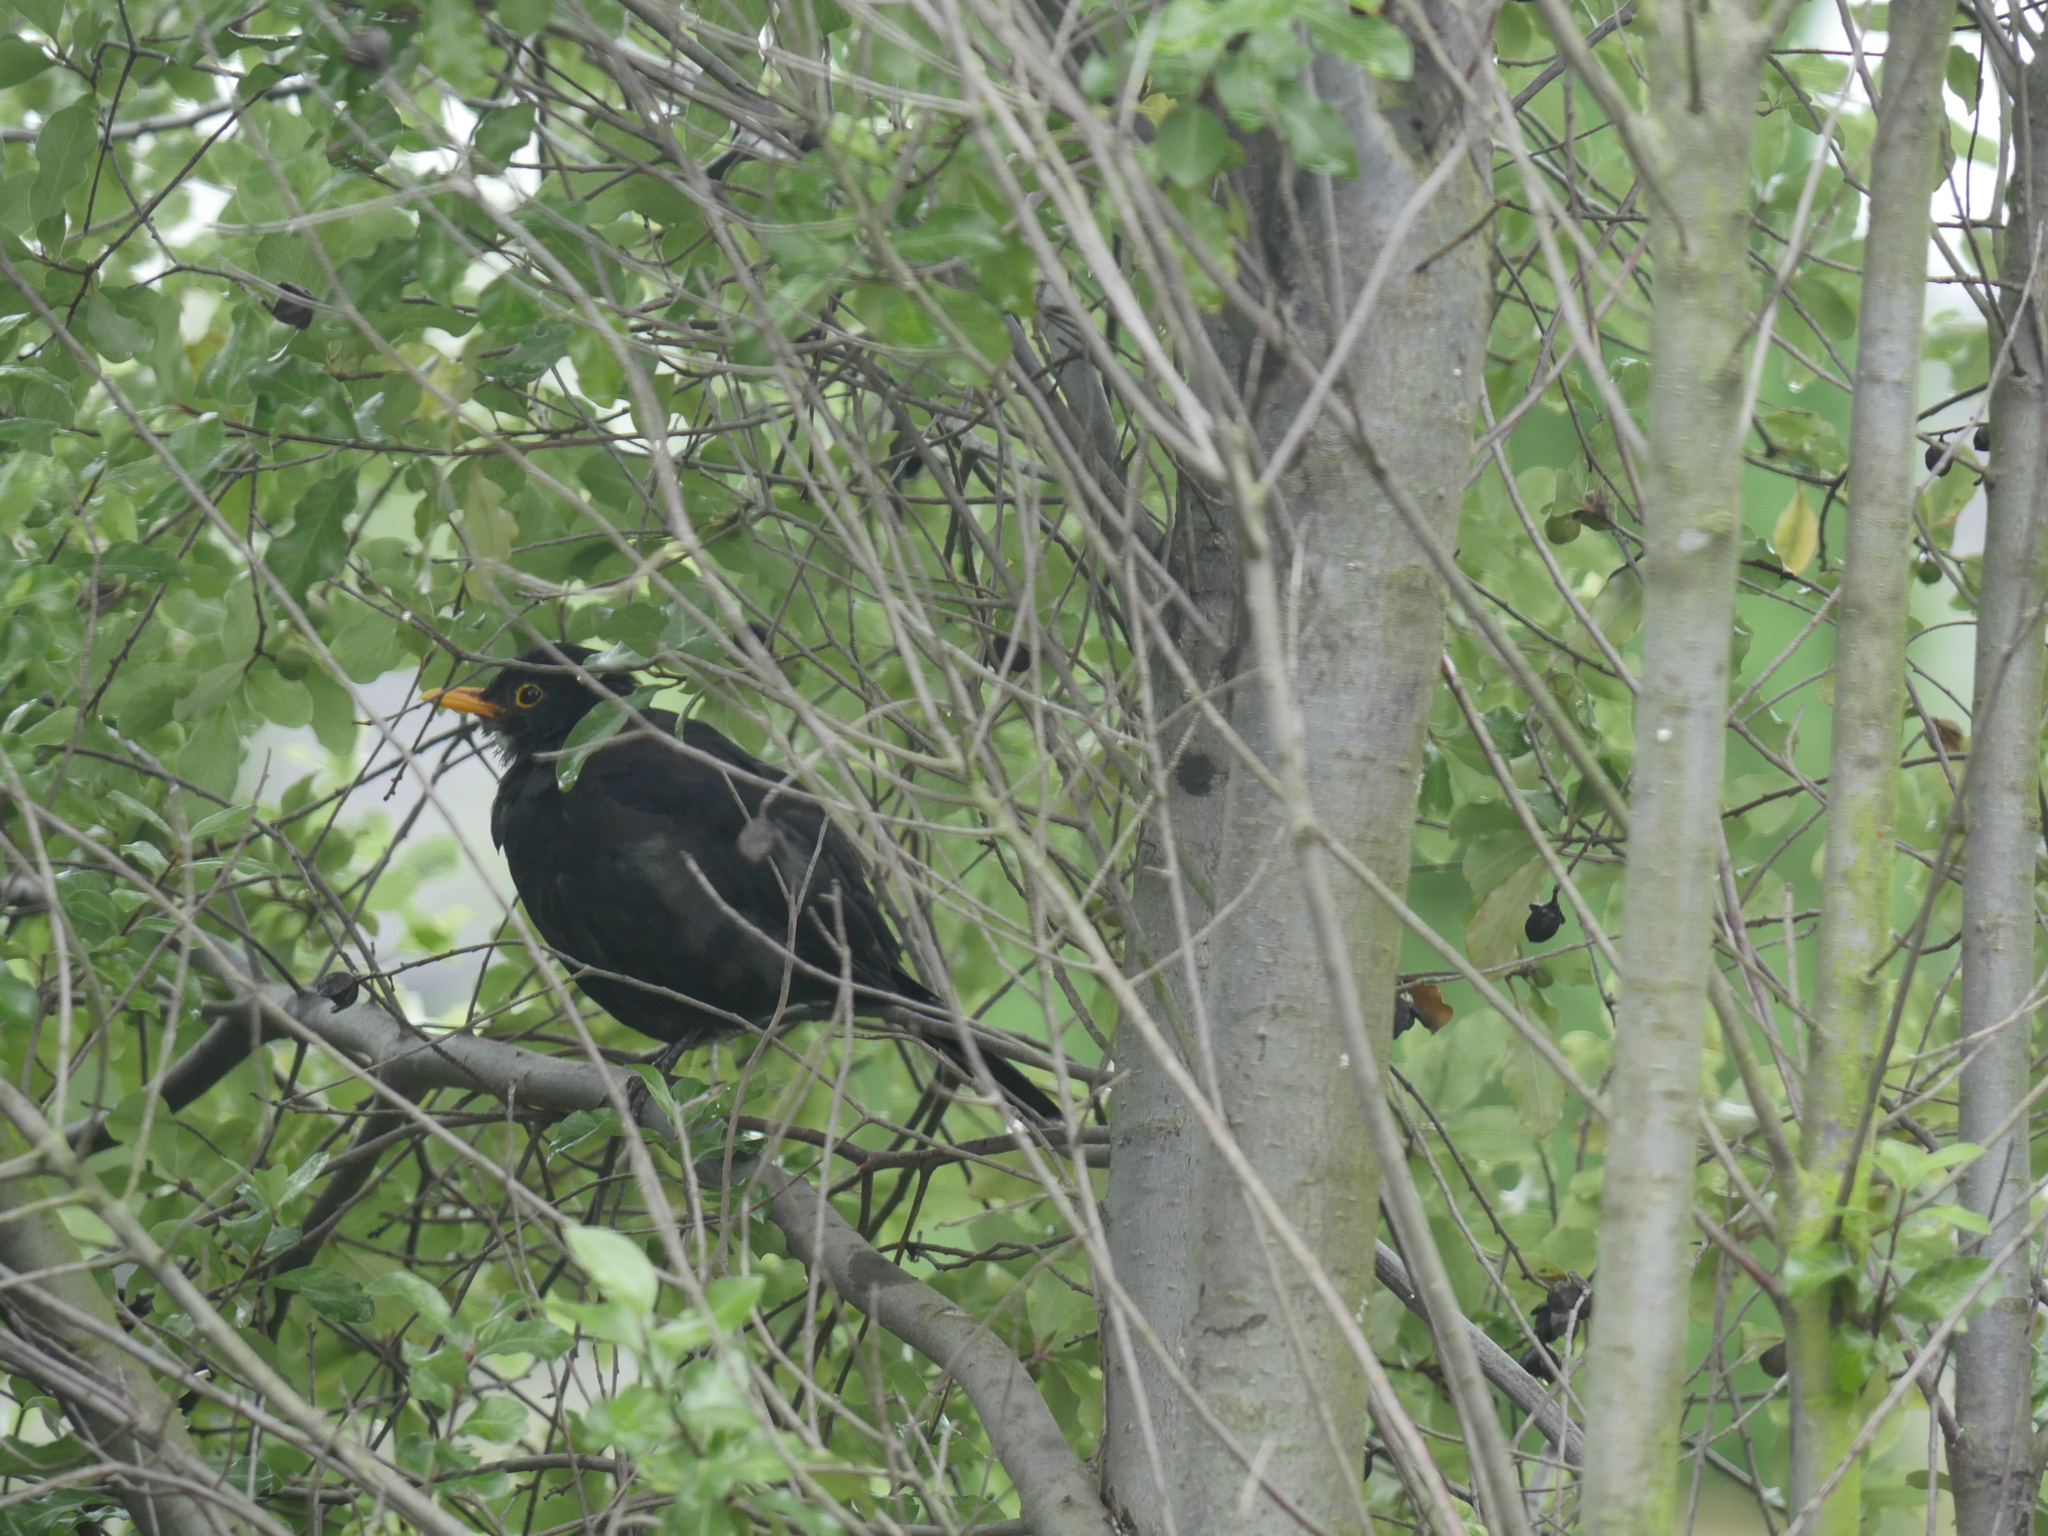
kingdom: Animalia
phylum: Chordata
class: Aves
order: Passeriformes
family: Turdidae
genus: Turdus
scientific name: Turdus merula
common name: Common blackbird
